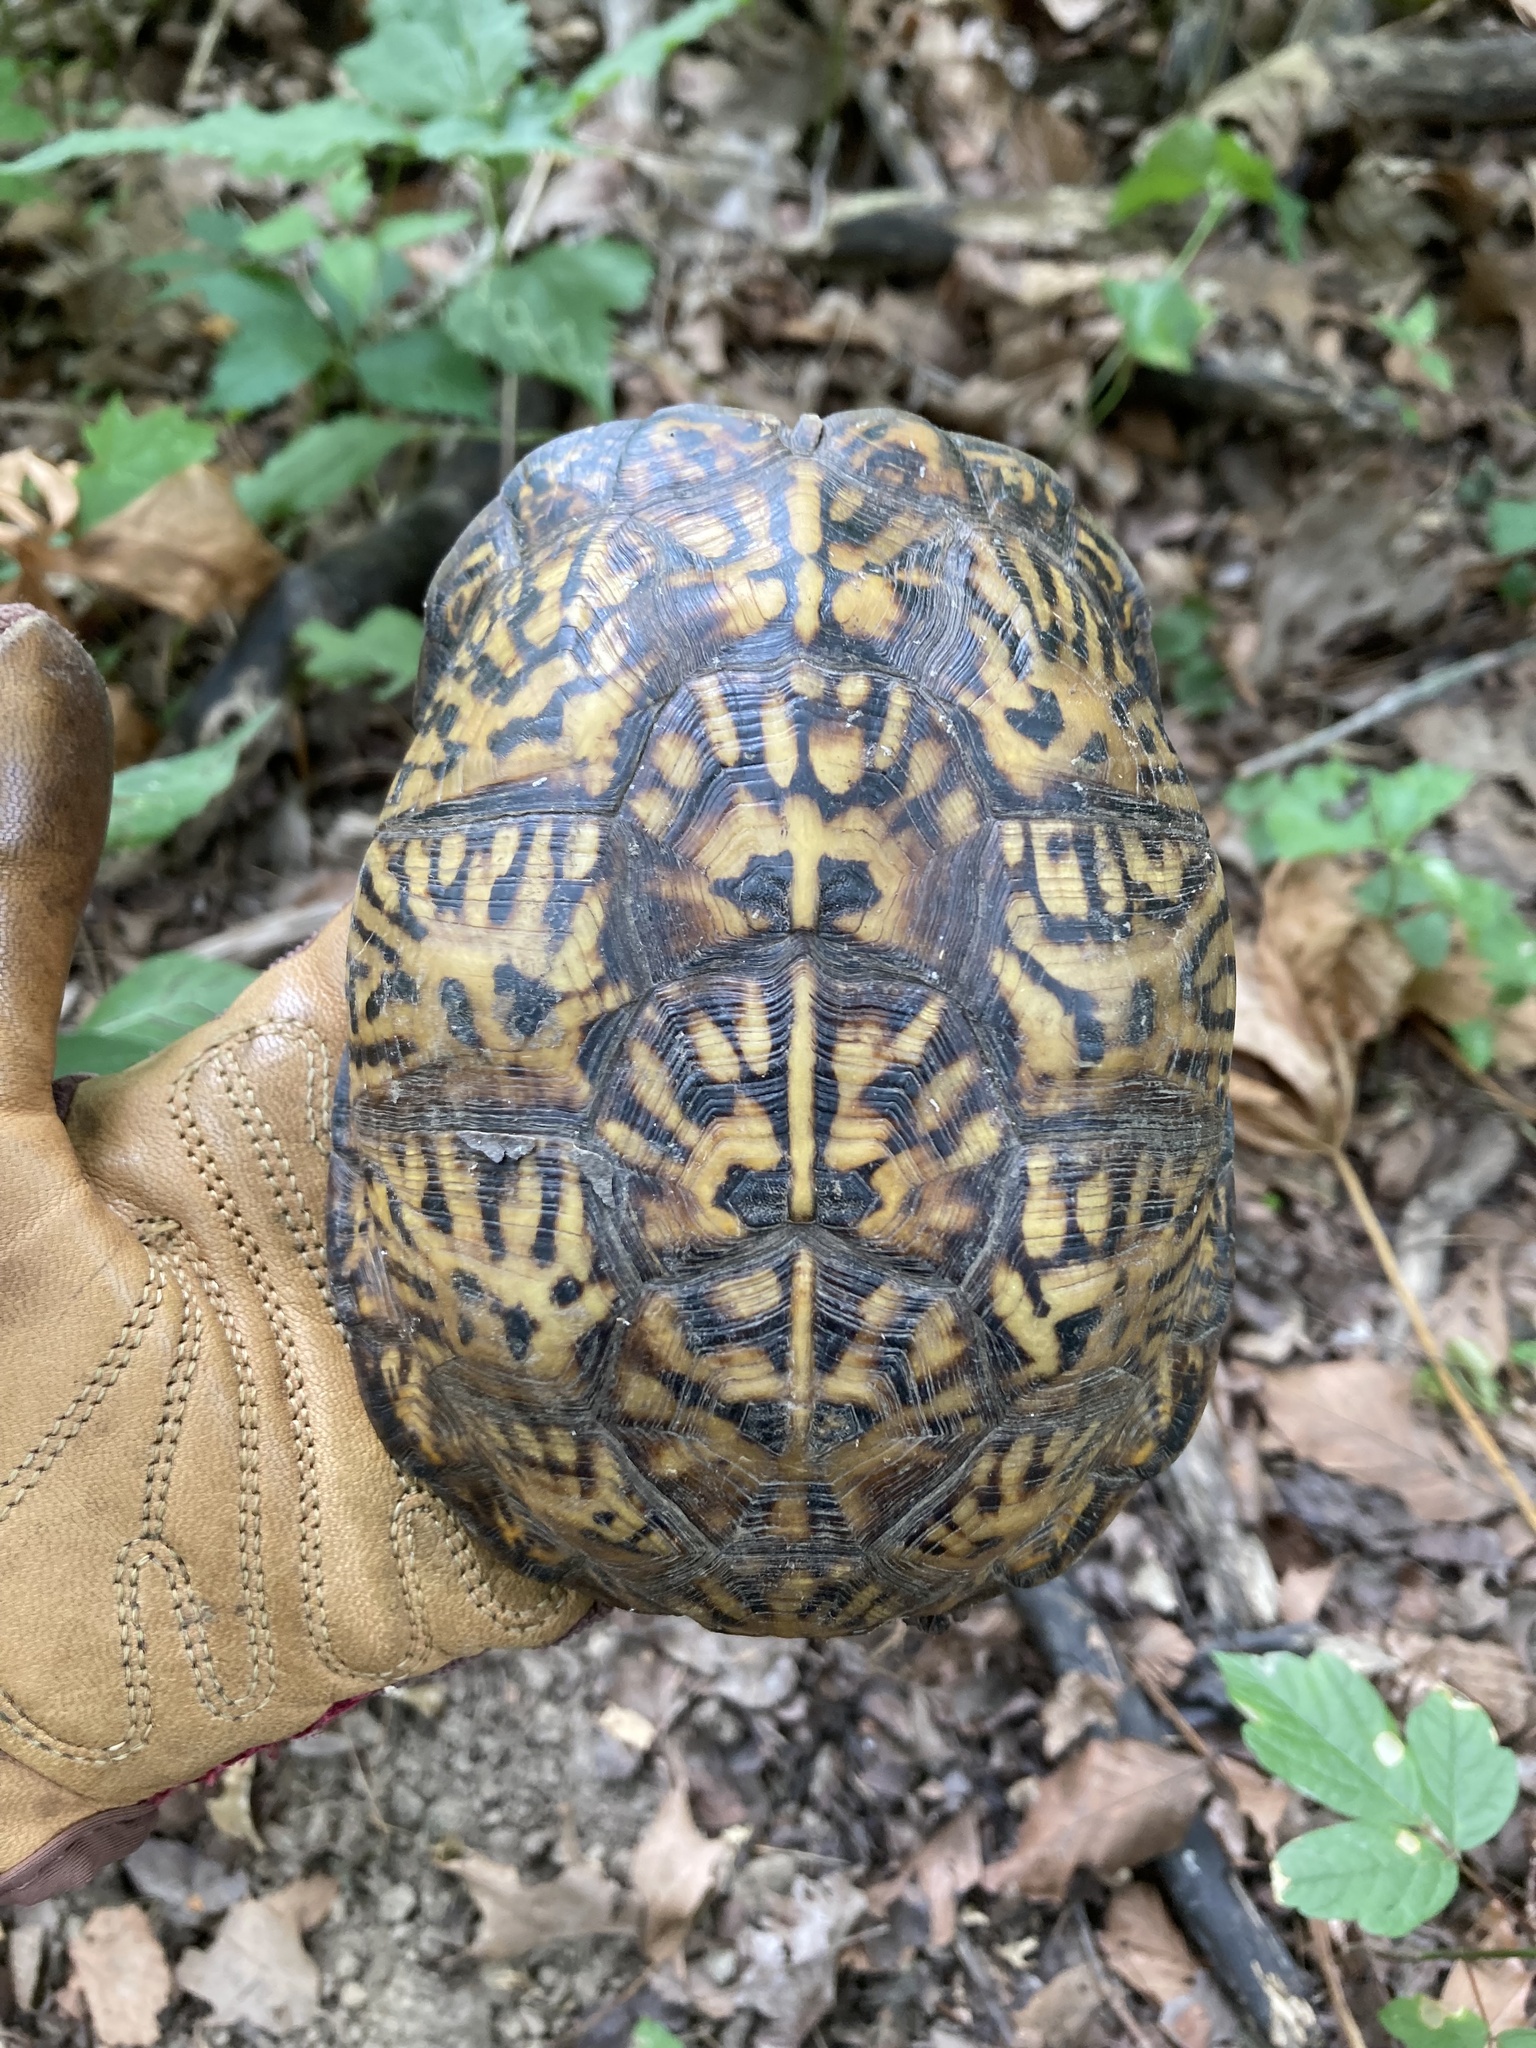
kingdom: Animalia
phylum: Chordata
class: Testudines
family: Emydidae
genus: Terrapene
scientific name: Terrapene carolina
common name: Common box turtle
